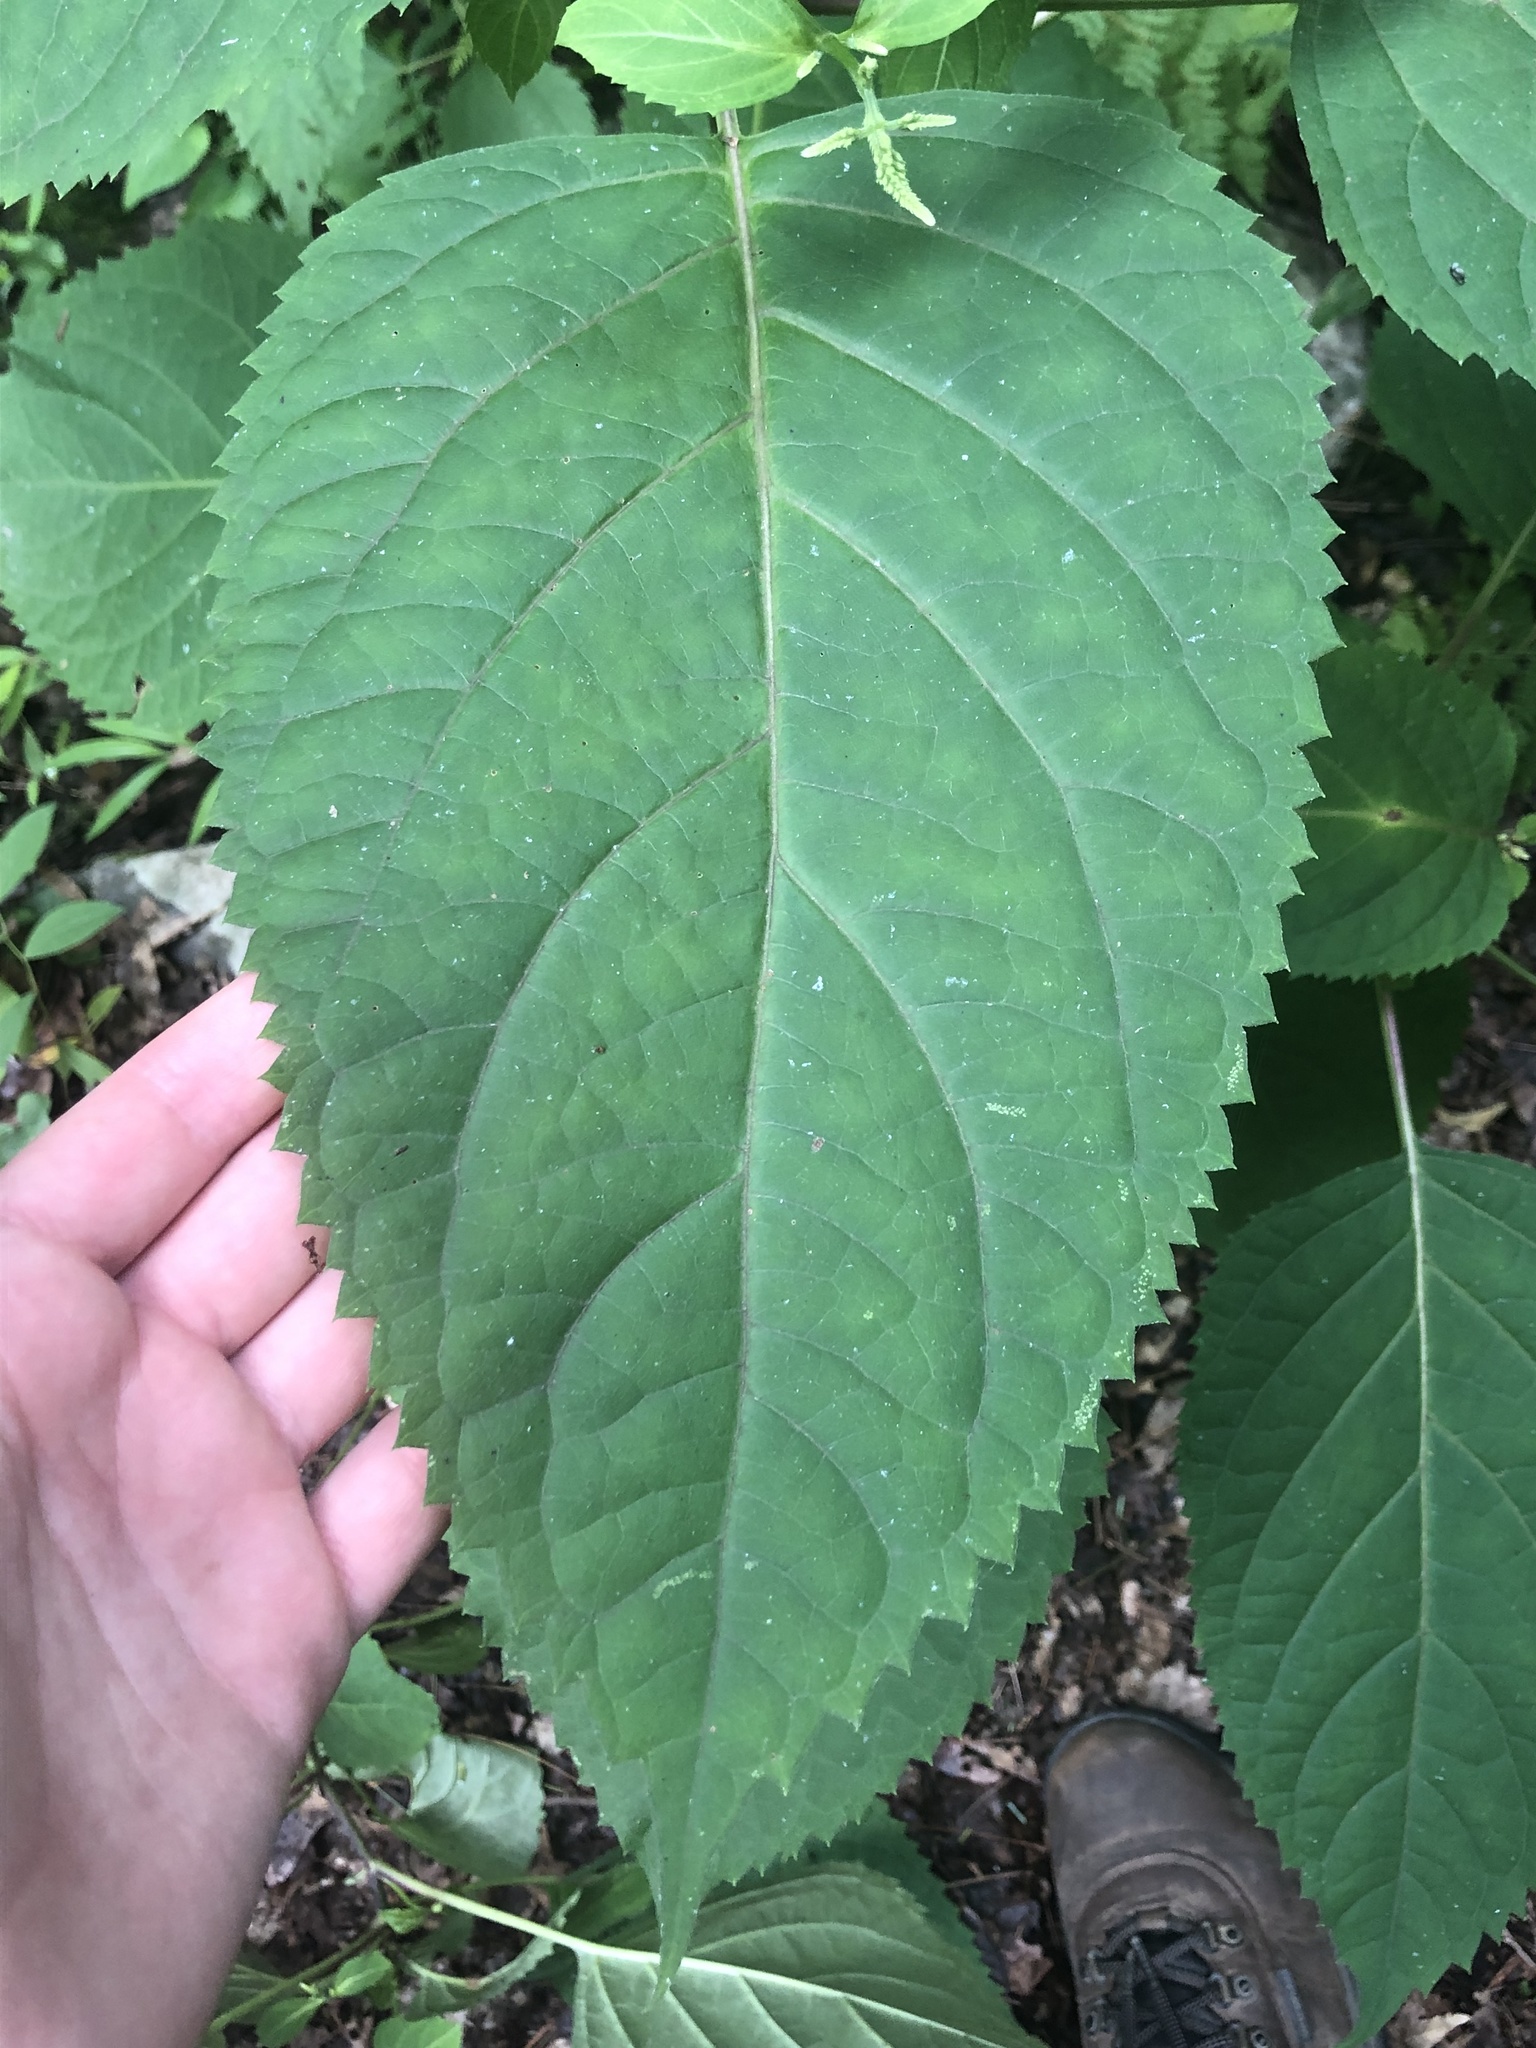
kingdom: Plantae
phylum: Tracheophyta
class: Magnoliopsida
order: Lamiales
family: Lamiaceae
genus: Collinsonia
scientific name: Collinsonia canadensis
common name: Northern horsebalm
